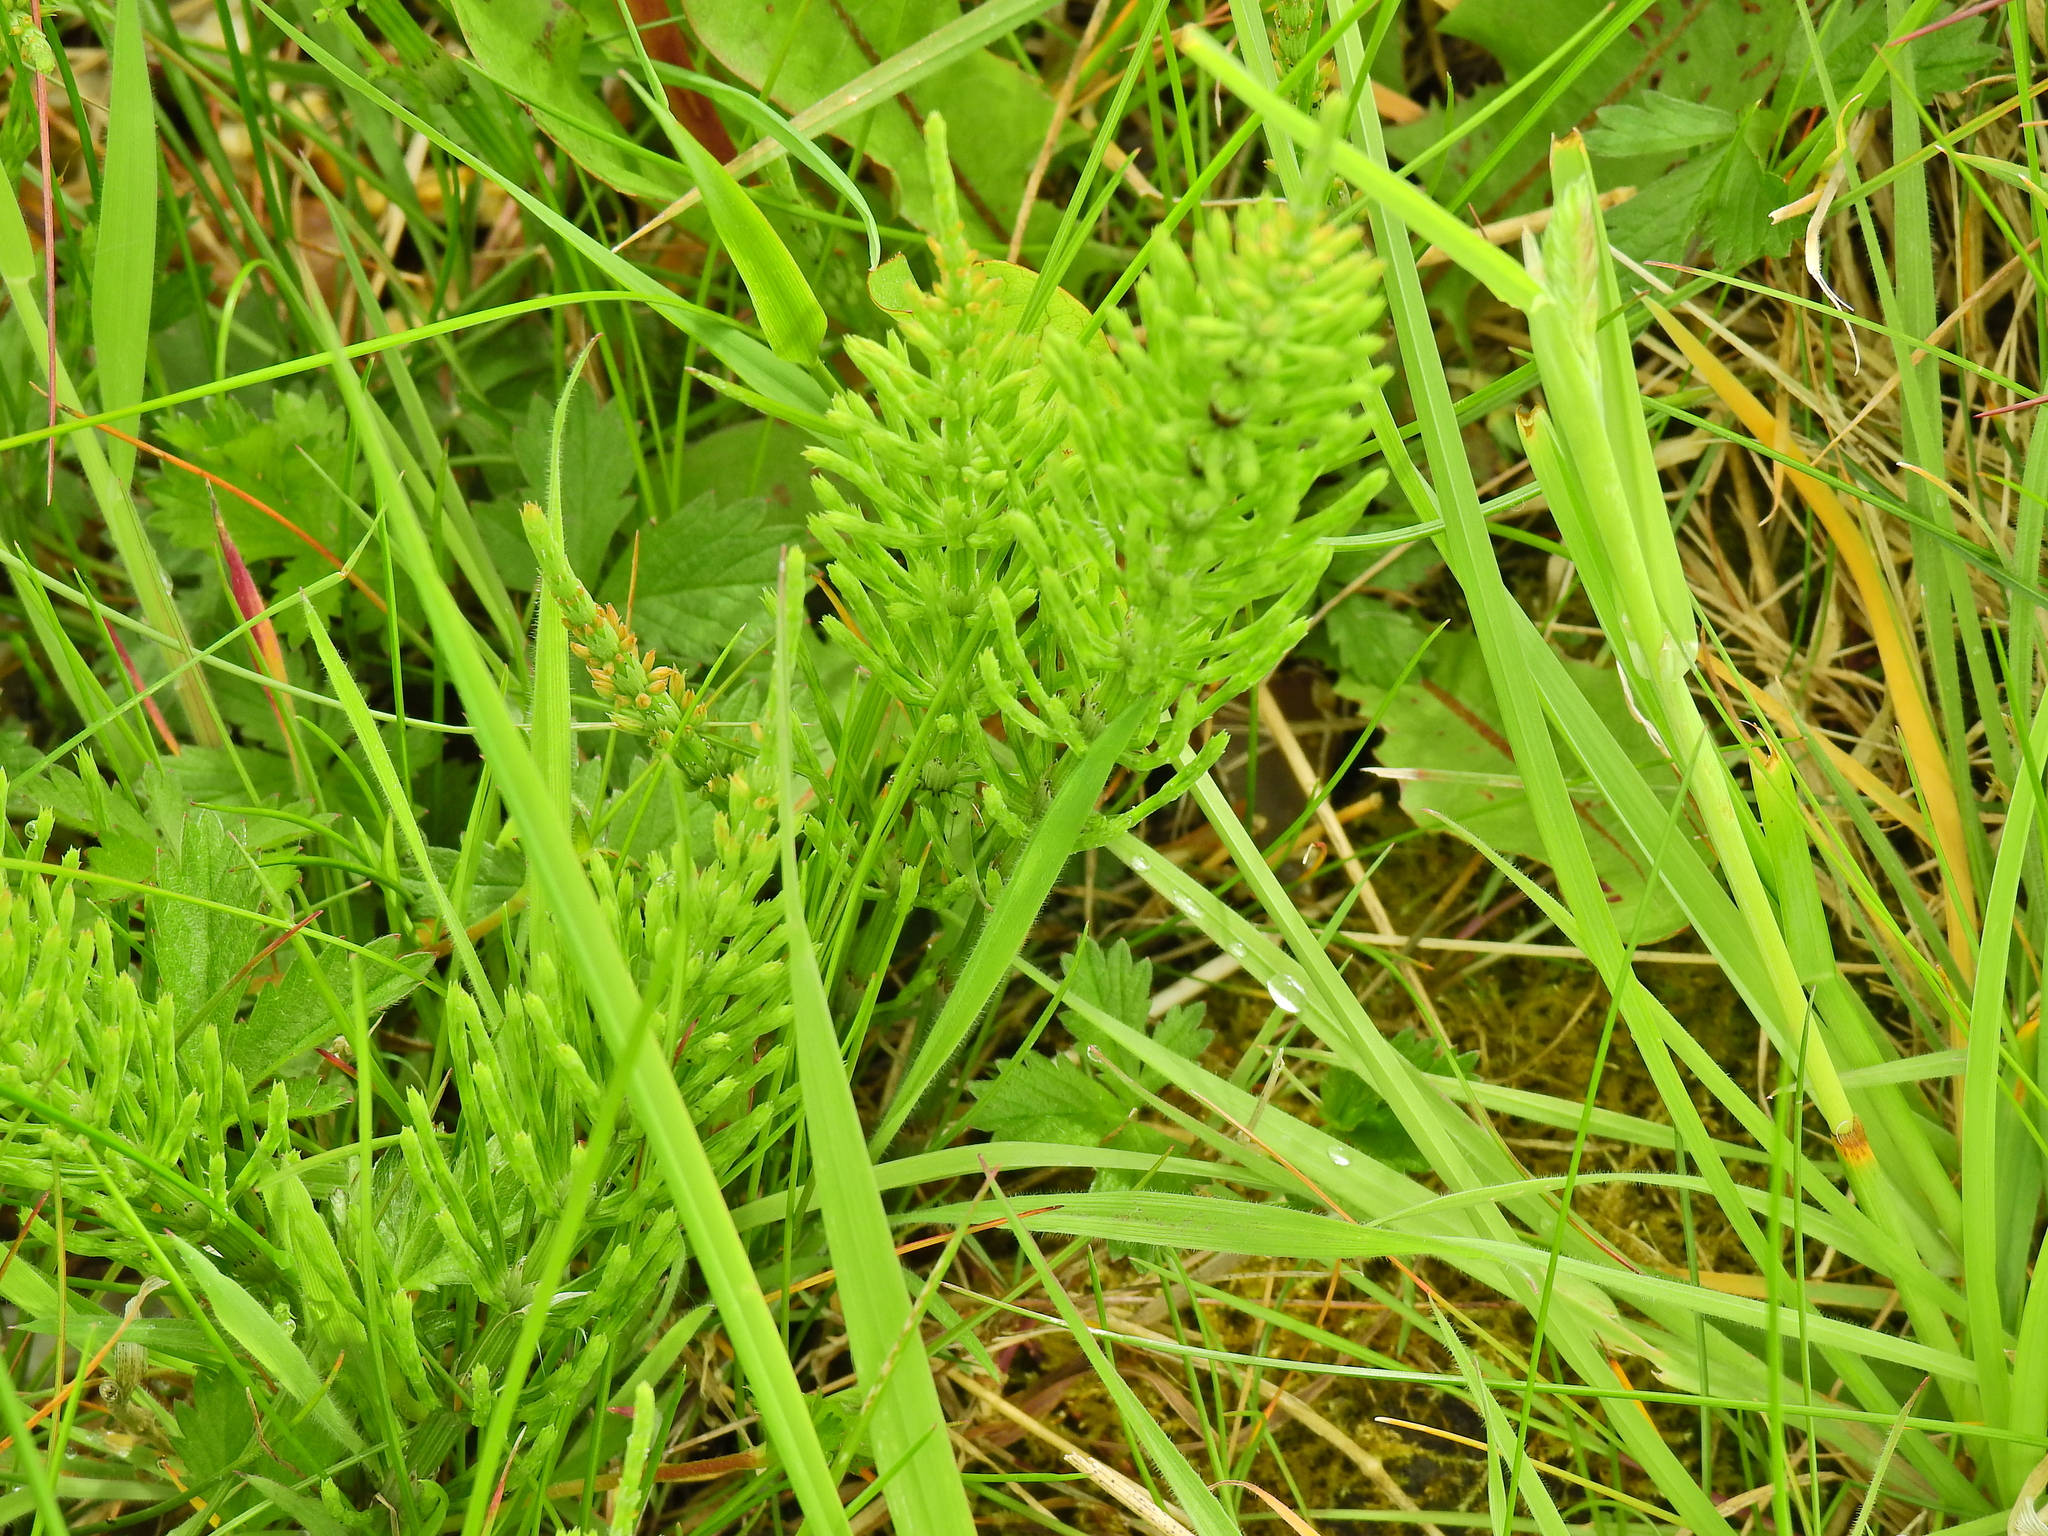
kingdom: Plantae
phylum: Tracheophyta
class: Polypodiopsida
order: Equisetales
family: Equisetaceae
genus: Equisetum
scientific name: Equisetum arvense
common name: Field horsetail
